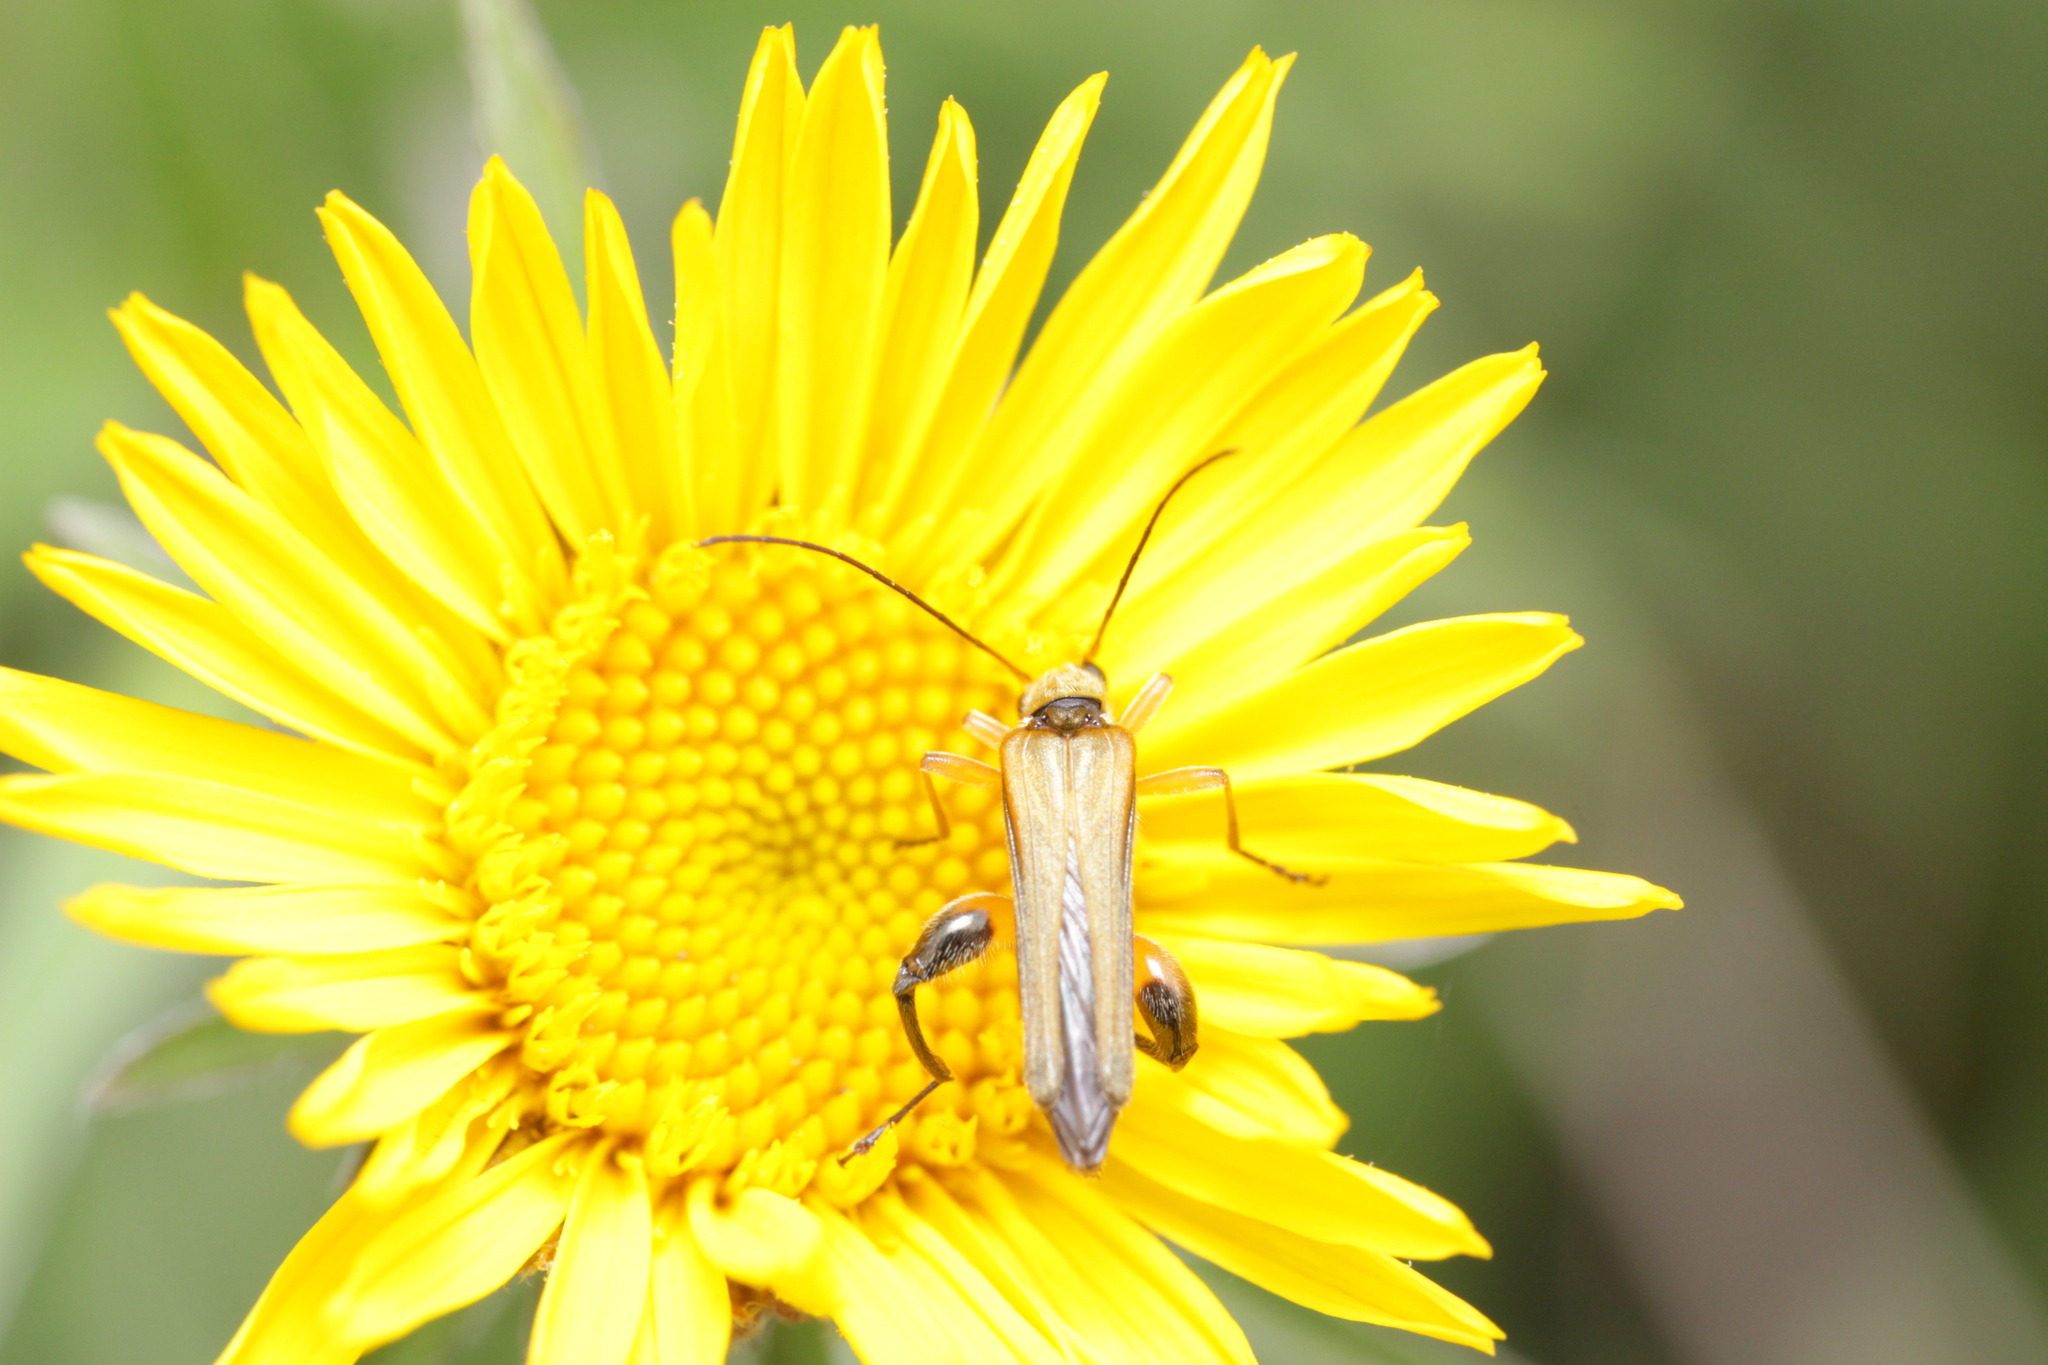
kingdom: Animalia
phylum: Arthropoda
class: Insecta
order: Coleoptera
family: Oedemeridae
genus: Oedemera
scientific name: Oedemera podagrariae
